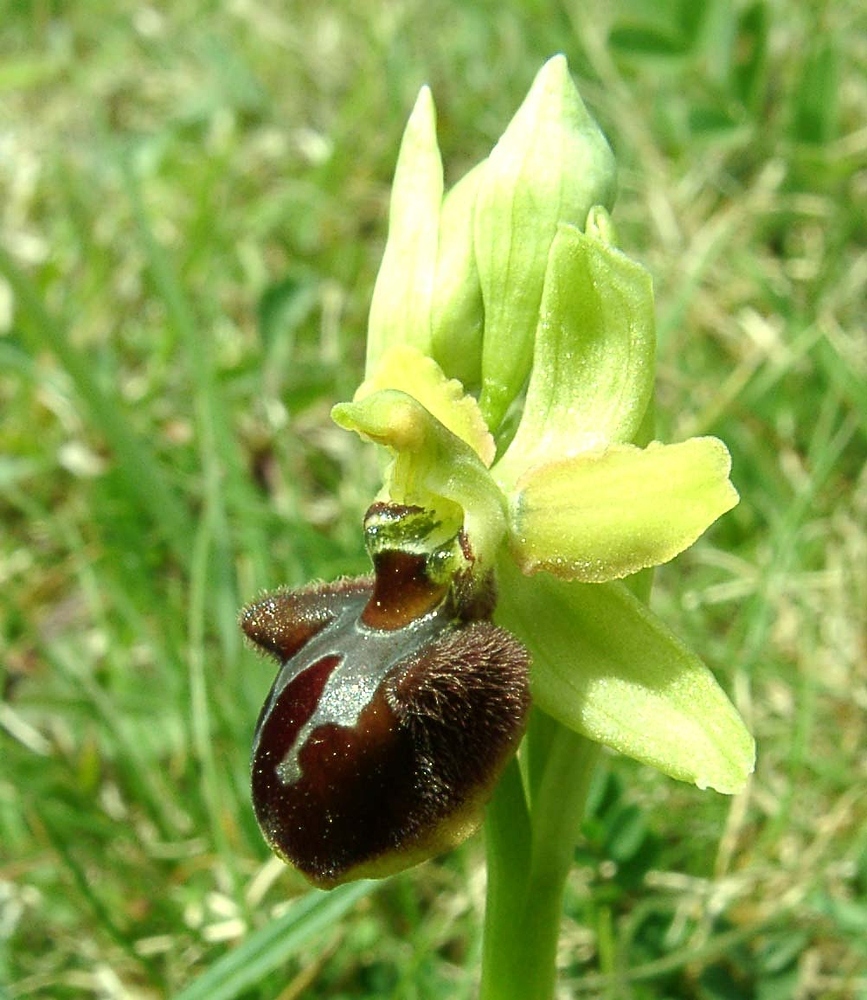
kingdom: Plantae
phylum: Tracheophyta
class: Liliopsida
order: Asparagales
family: Orchidaceae
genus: Ophrys
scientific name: Ophrys sphegodes
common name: Early spider-orchid
